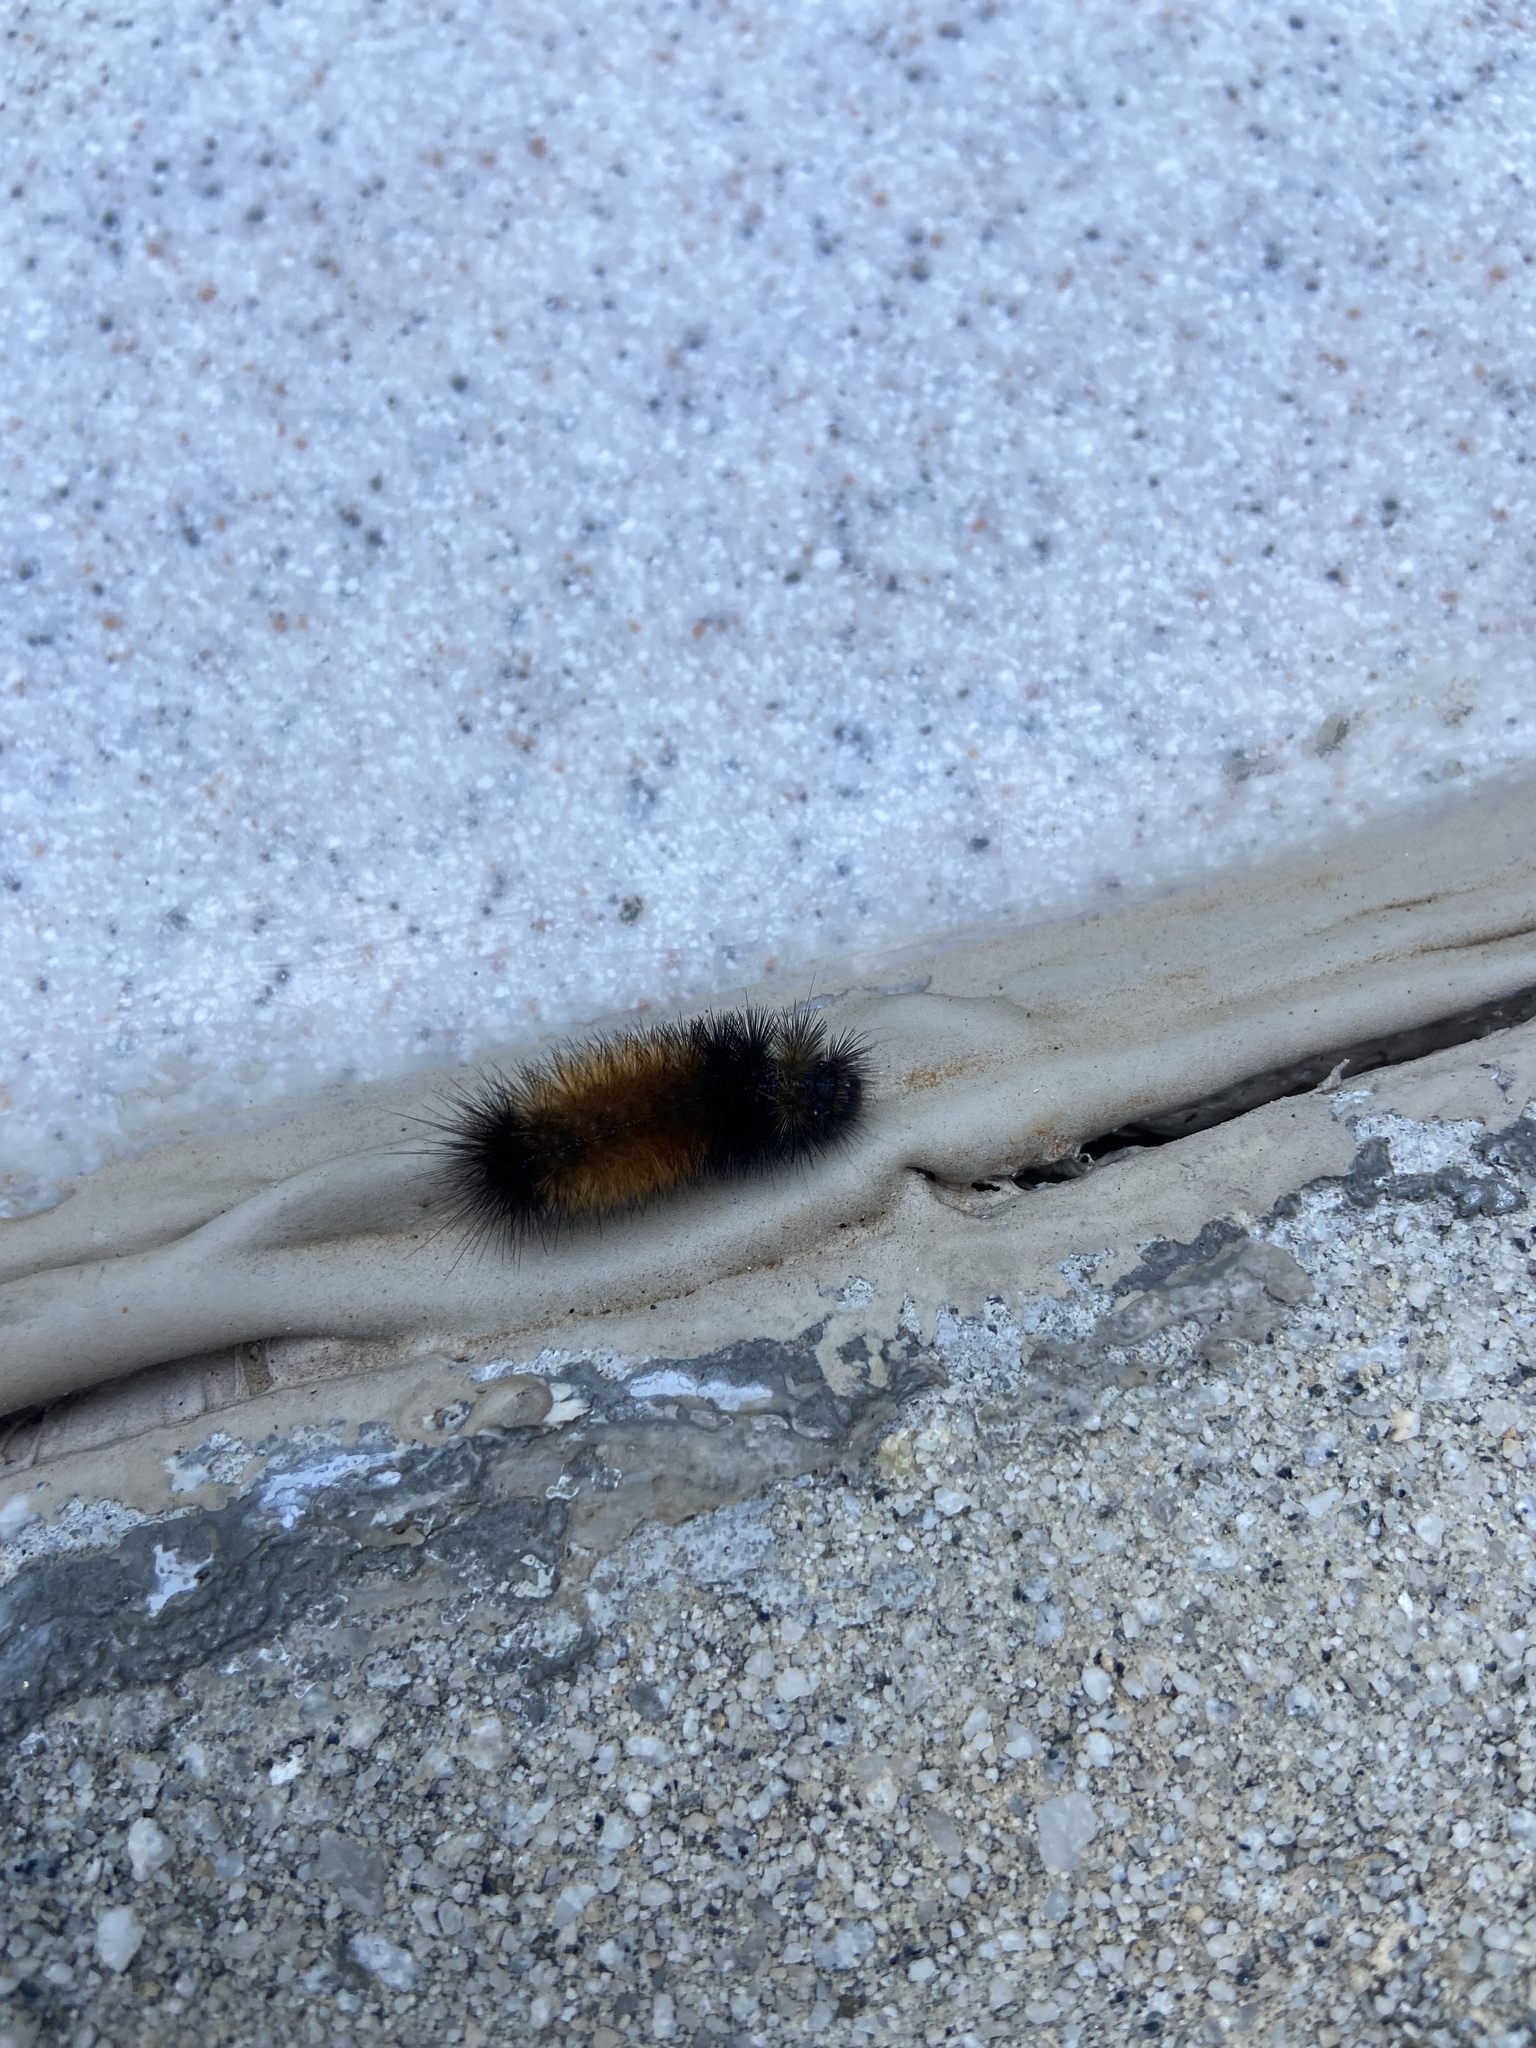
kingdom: Animalia
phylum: Arthropoda
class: Insecta
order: Lepidoptera
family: Erebidae
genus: Pyrrharctia
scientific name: Pyrrharctia isabella
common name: Isabella tiger moth
